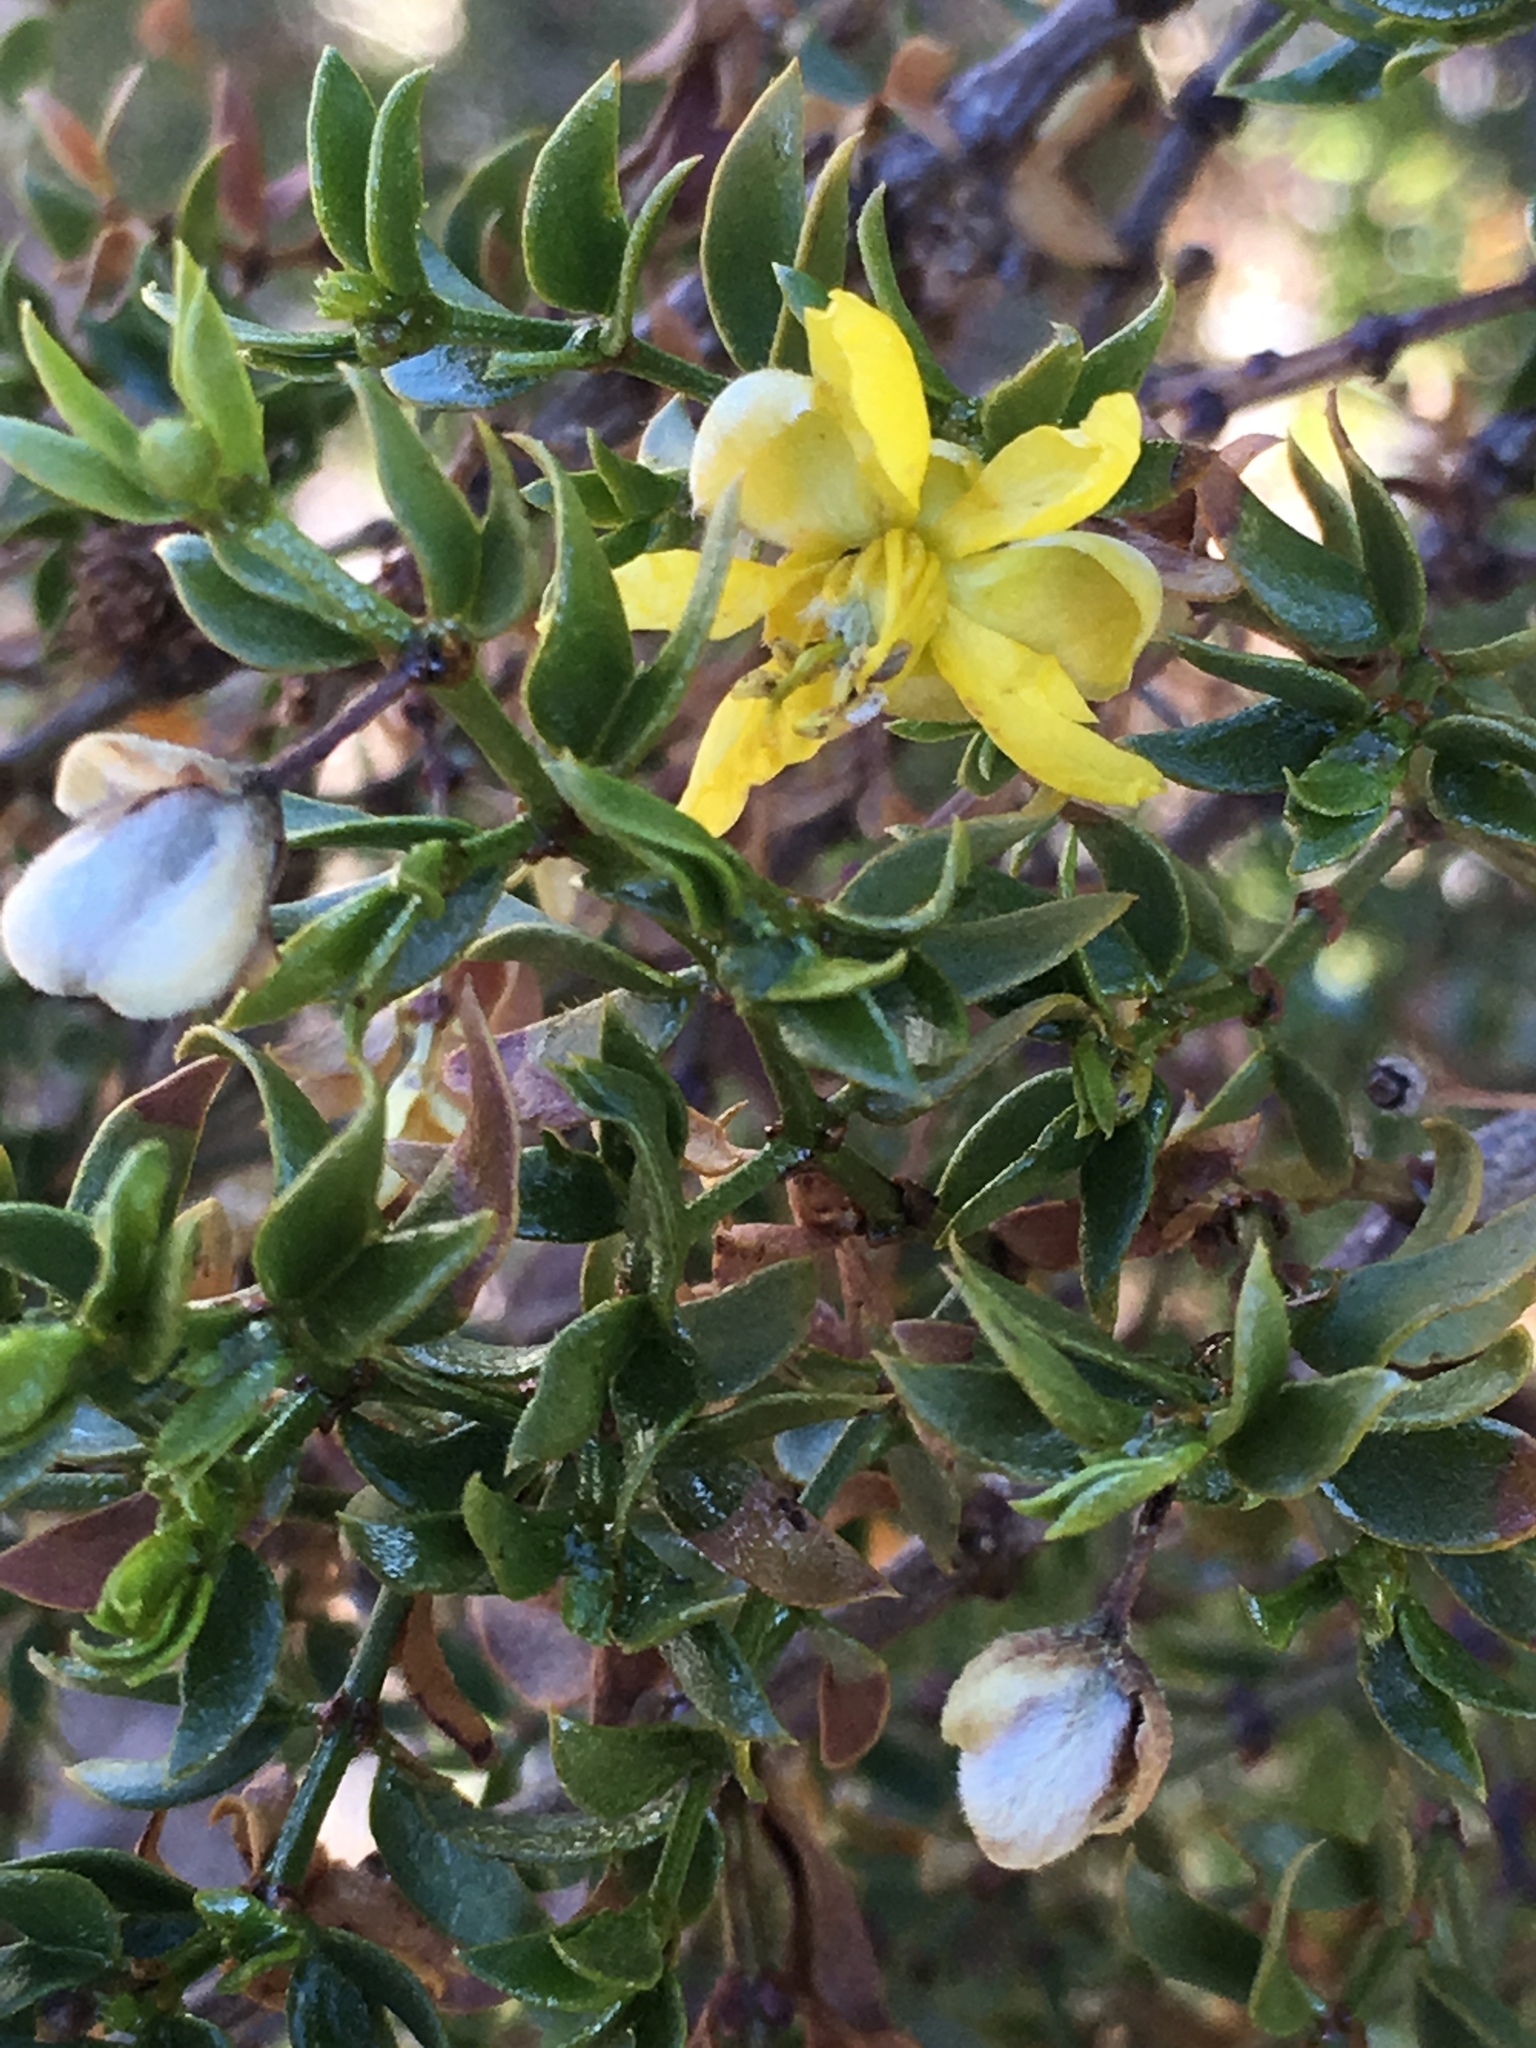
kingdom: Plantae
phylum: Tracheophyta
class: Magnoliopsida
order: Zygophyllales
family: Zygophyllaceae
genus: Larrea
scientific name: Larrea tridentata
